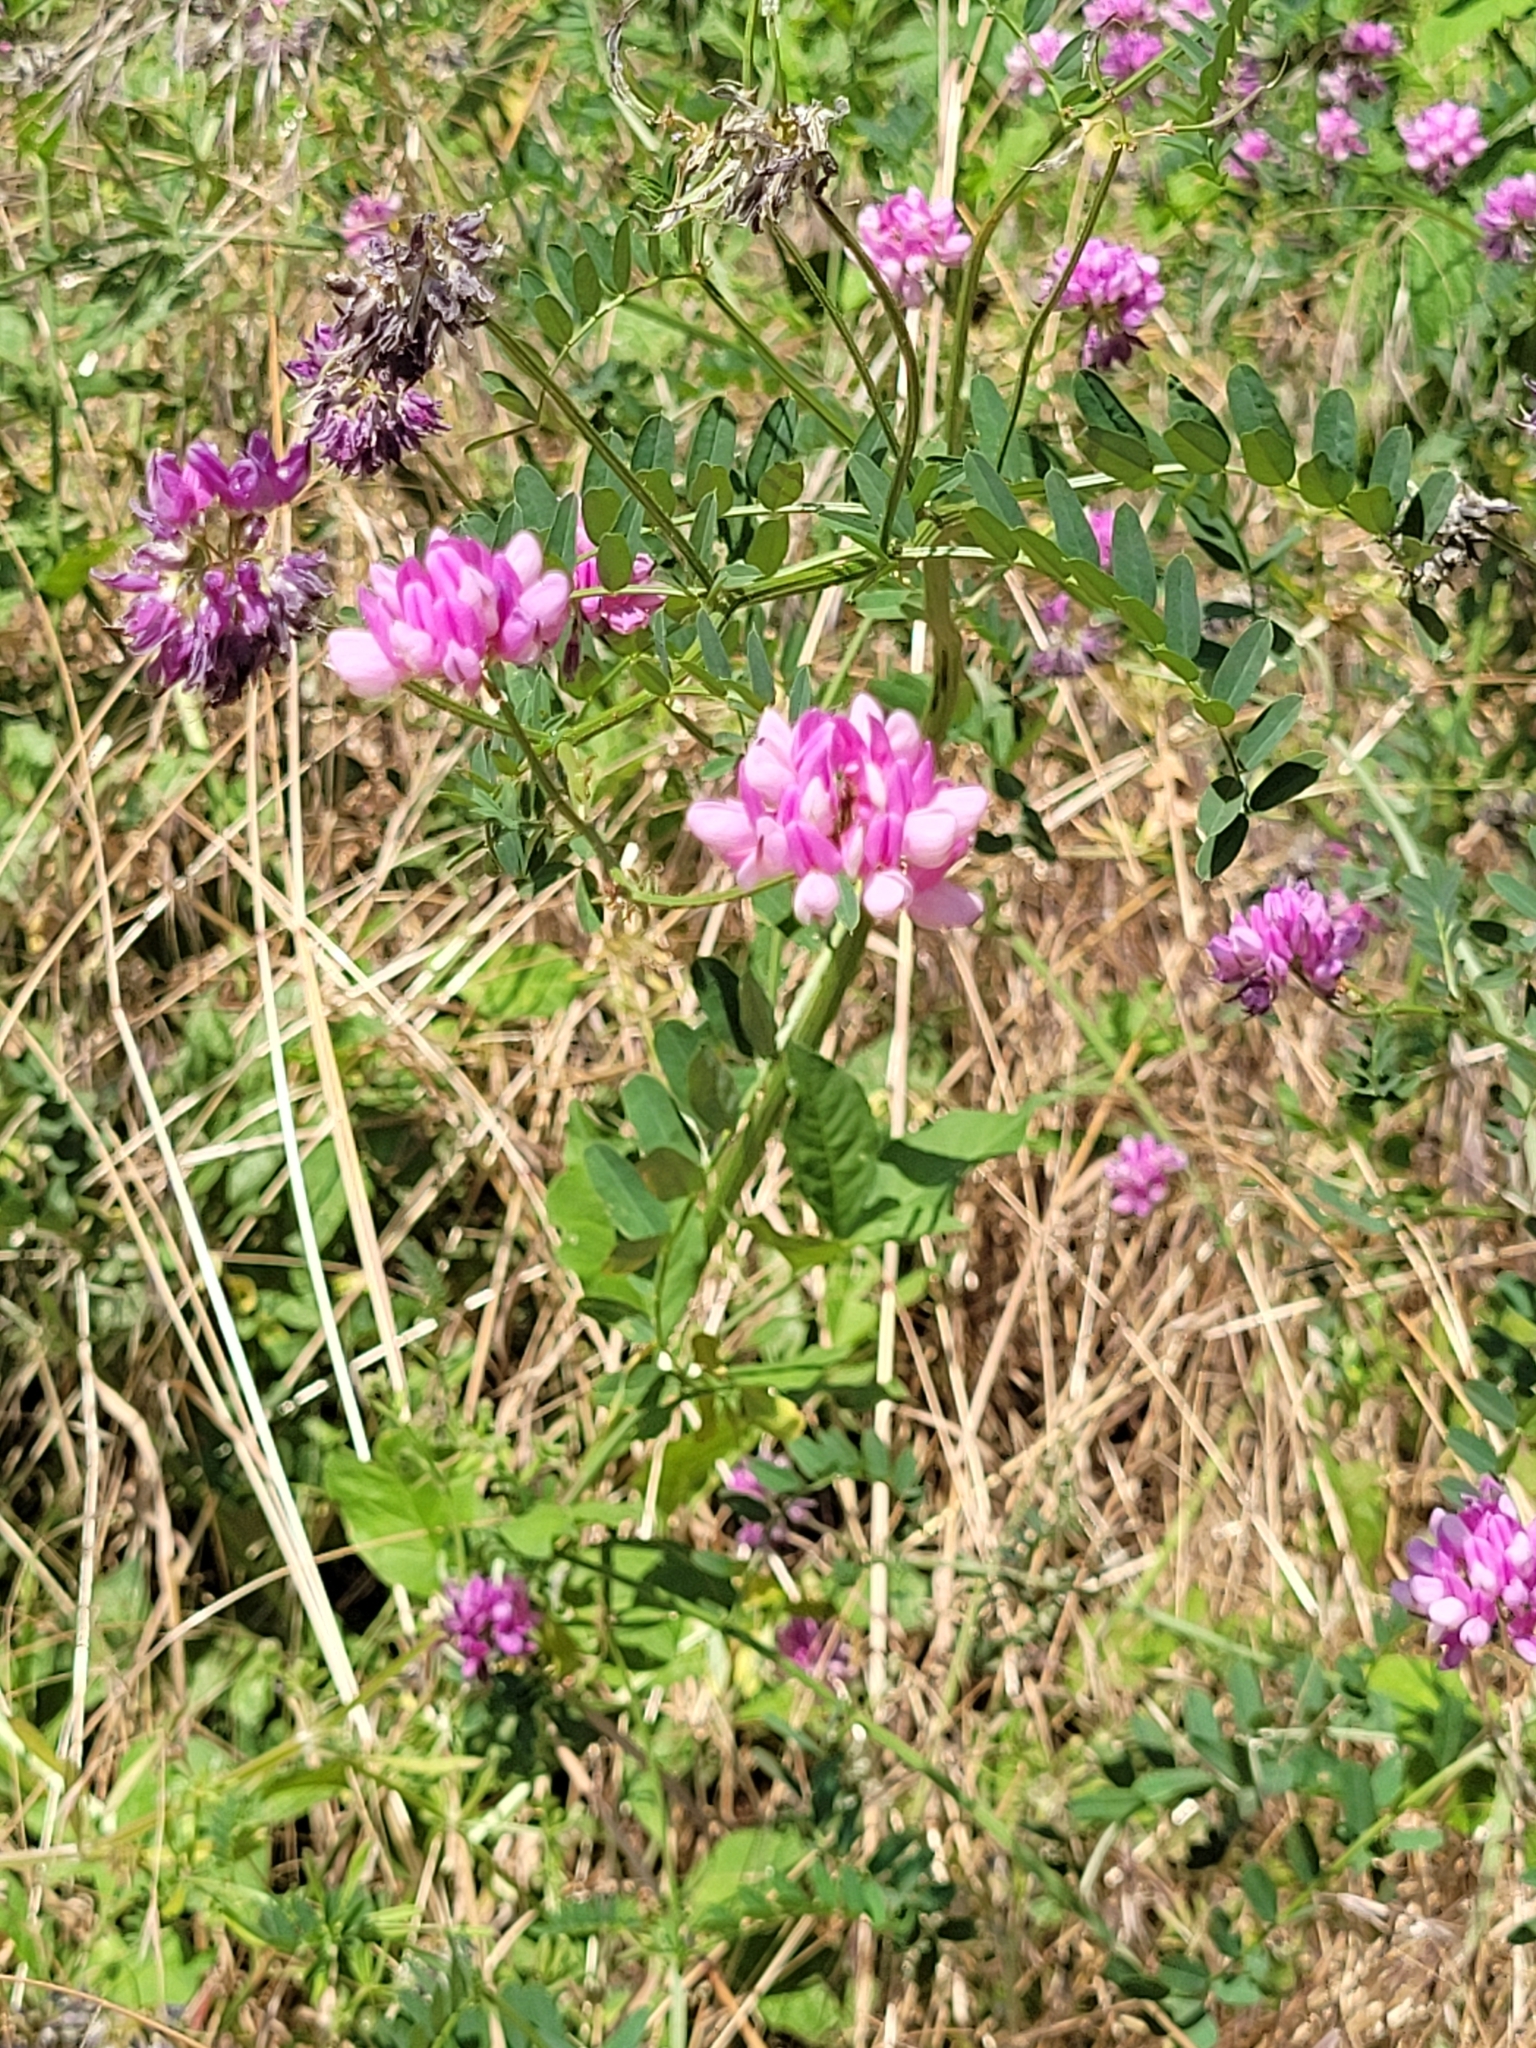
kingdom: Plantae
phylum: Tracheophyta
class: Magnoliopsida
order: Fabales
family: Fabaceae
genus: Coronilla
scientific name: Coronilla varia
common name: Crownvetch
